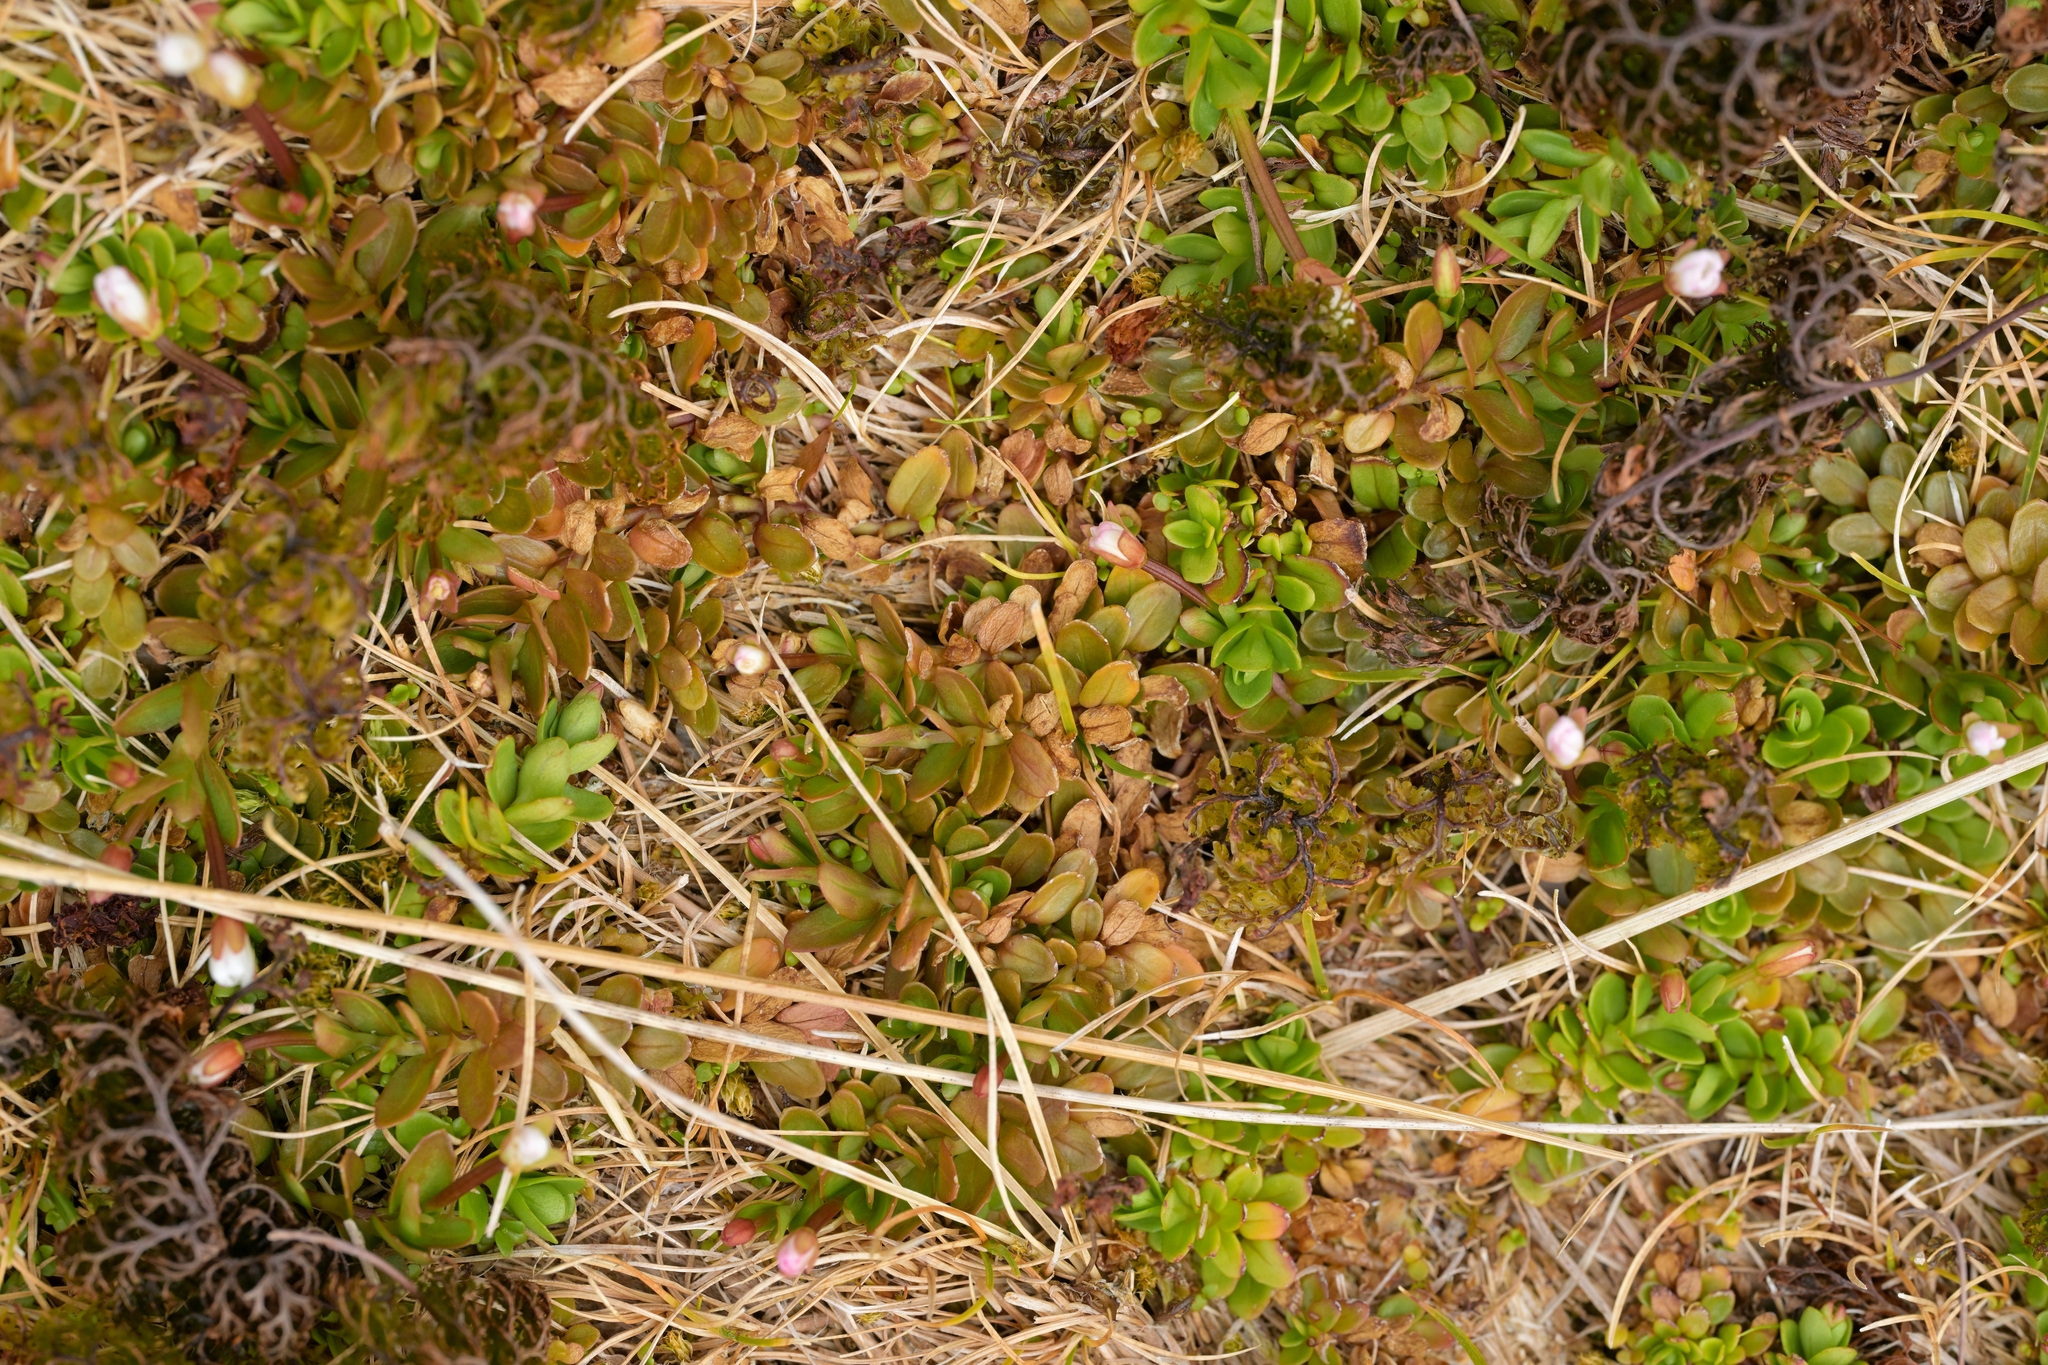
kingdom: Plantae
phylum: Tracheophyta
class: Magnoliopsida
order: Myrtales
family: Onagraceae
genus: Epilobium
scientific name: Epilobium confertifolium
